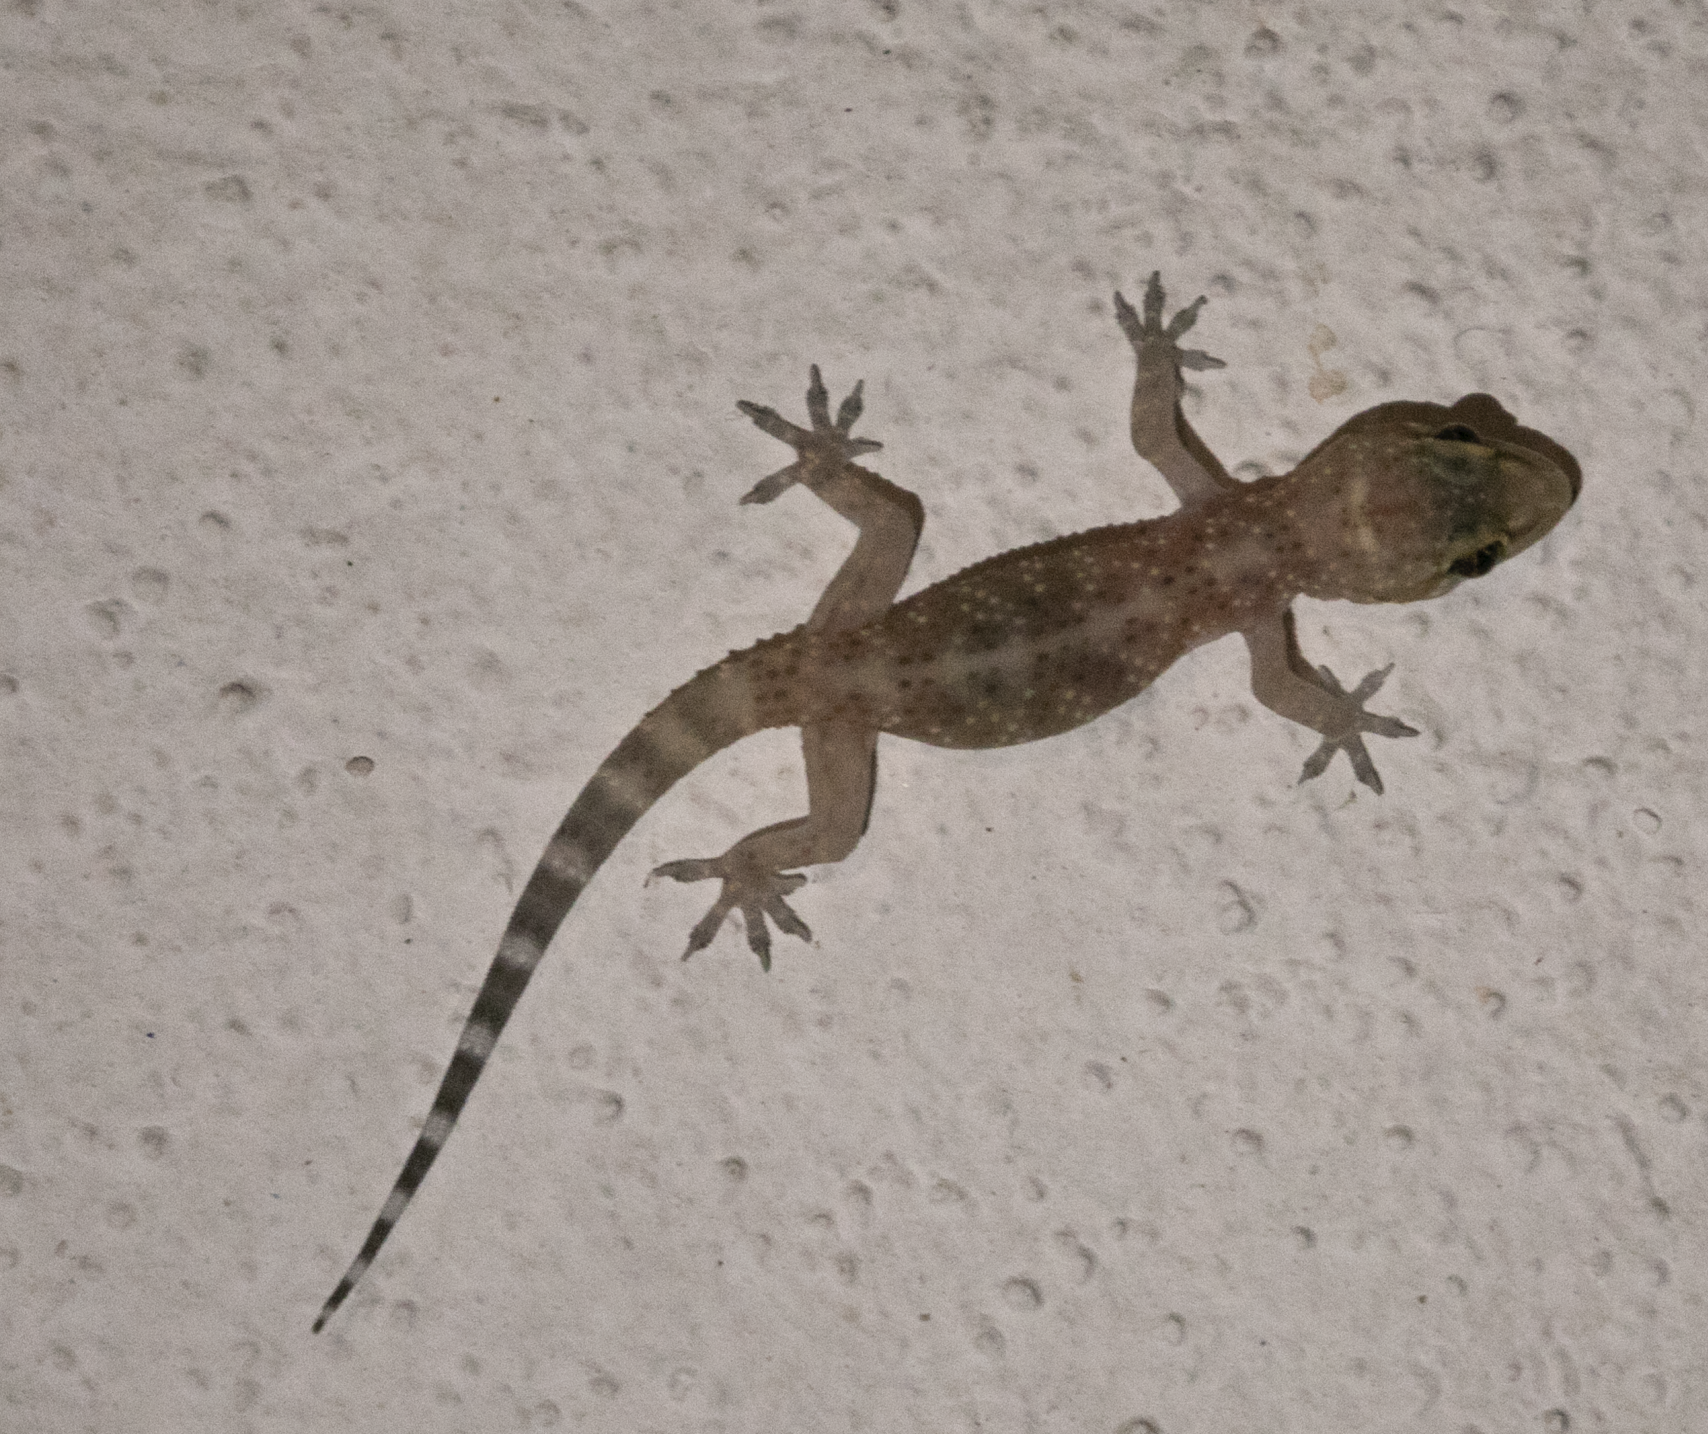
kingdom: Animalia
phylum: Chordata
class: Squamata
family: Gekkonidae
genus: Hemidactylus
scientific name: Hemidactylus turcicus
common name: Turkish gecko
